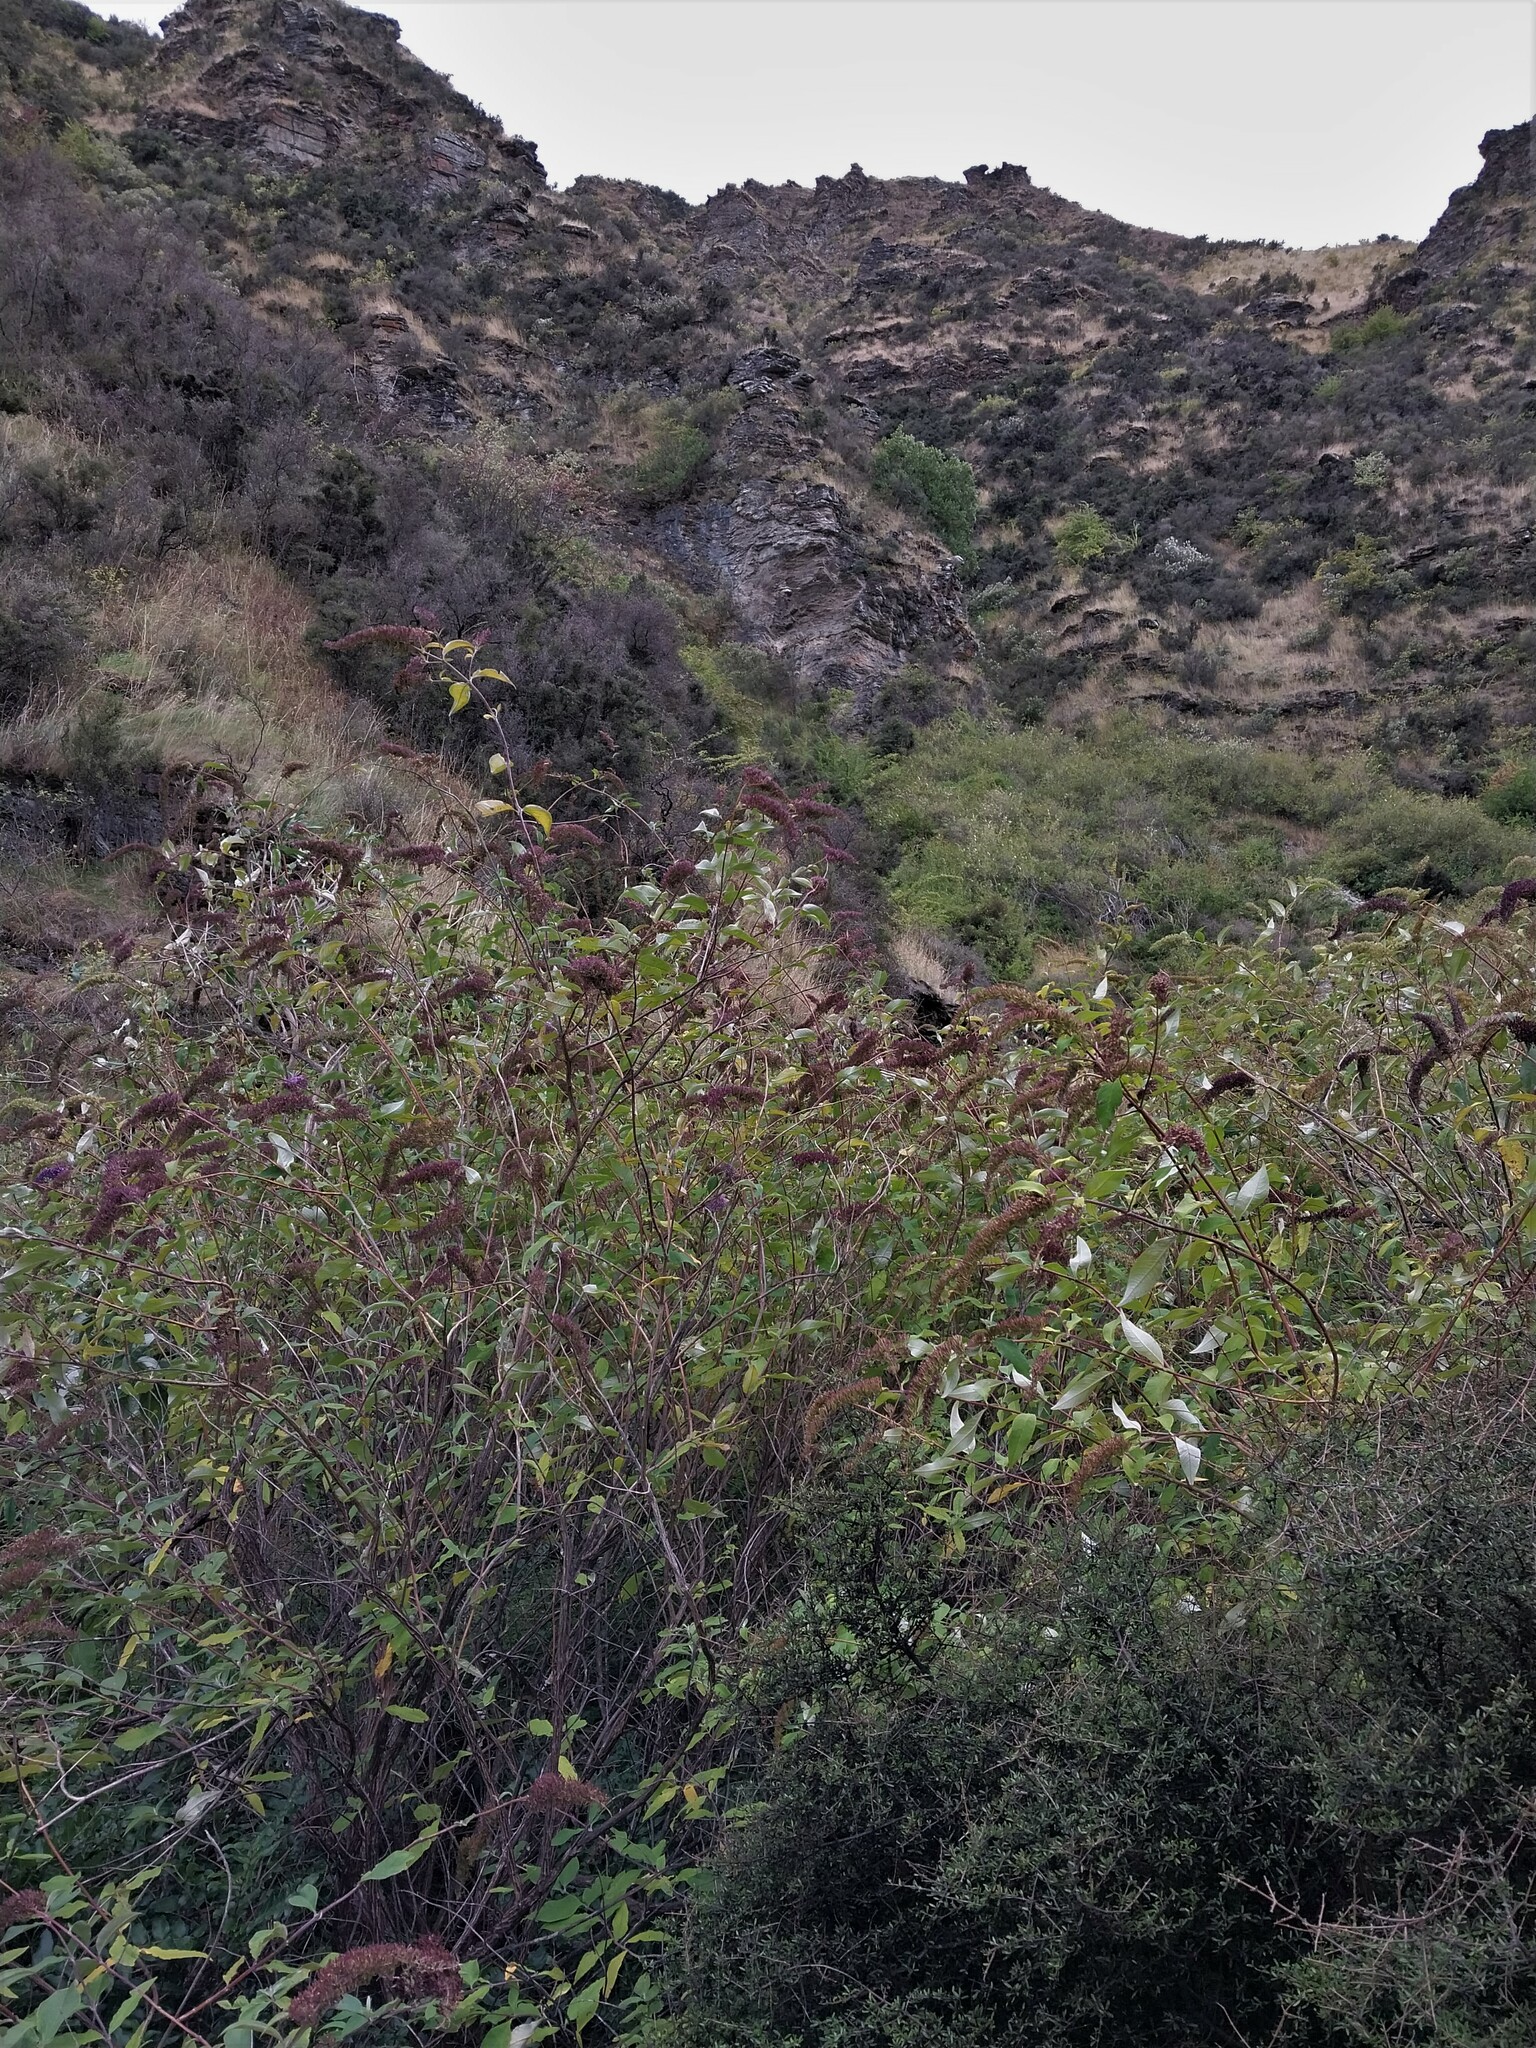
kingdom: Plantae
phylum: Tracheophyta
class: Magnoliopsida
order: Lamiales
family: Scrophulariaceae
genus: Buddleja
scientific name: Buddleja davidii
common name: Butterfly-bush
